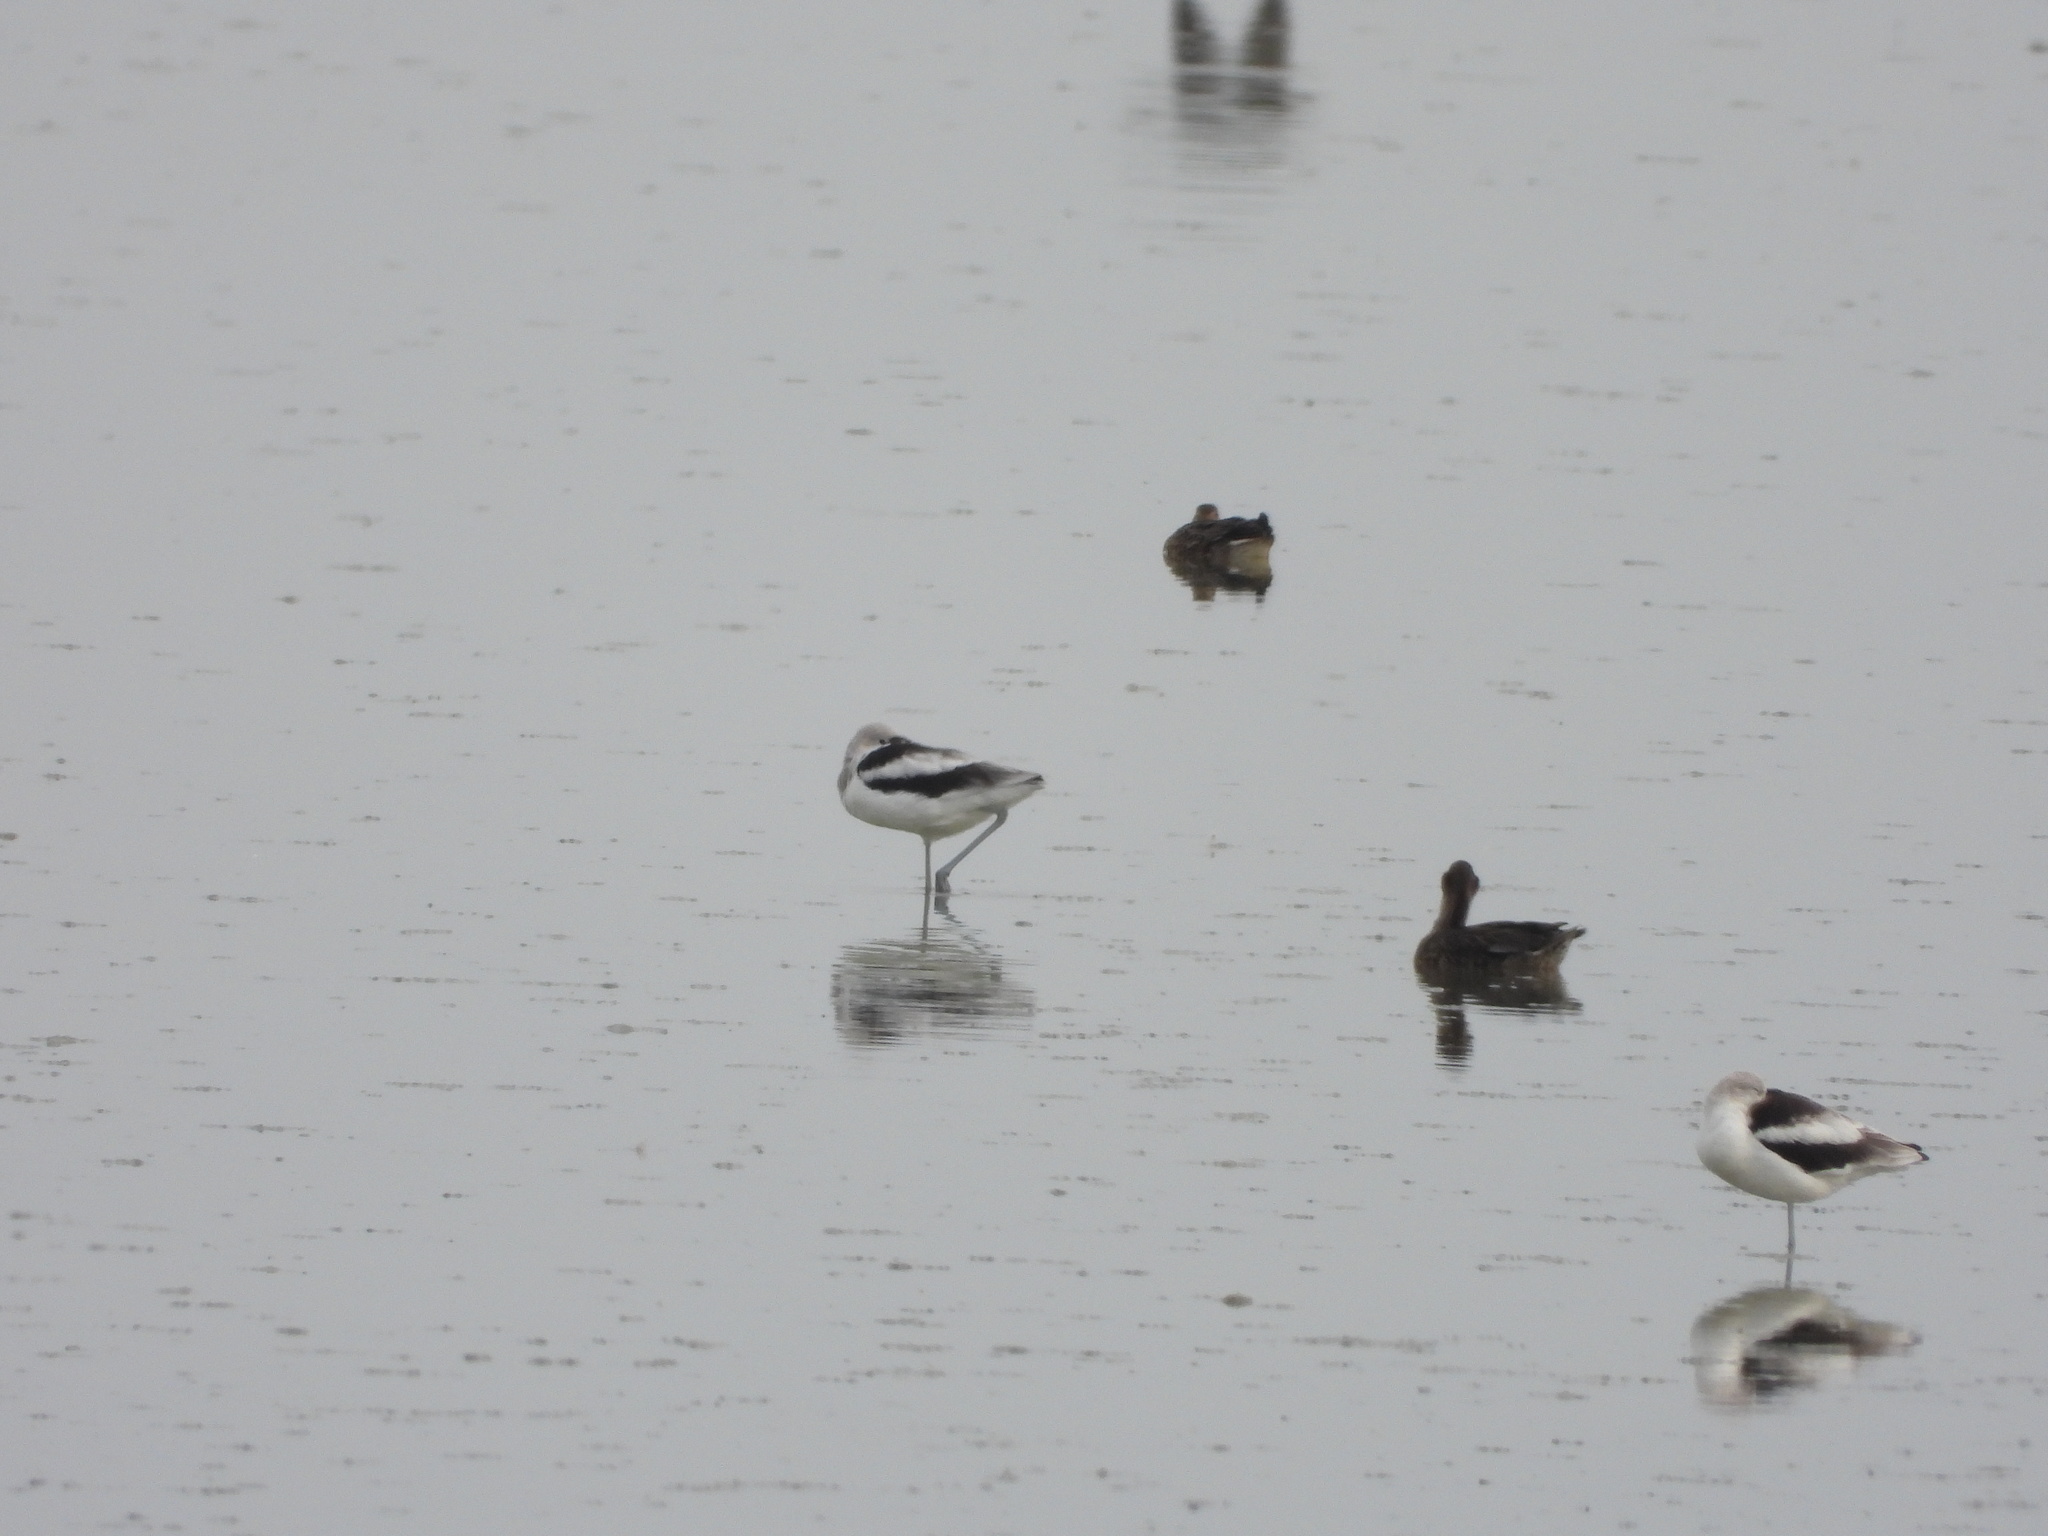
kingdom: Animalia
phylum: Chordata
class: Aves
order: Anseriformes
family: Anatidae
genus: Anas
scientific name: Anas crecca
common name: Eurasian teal
